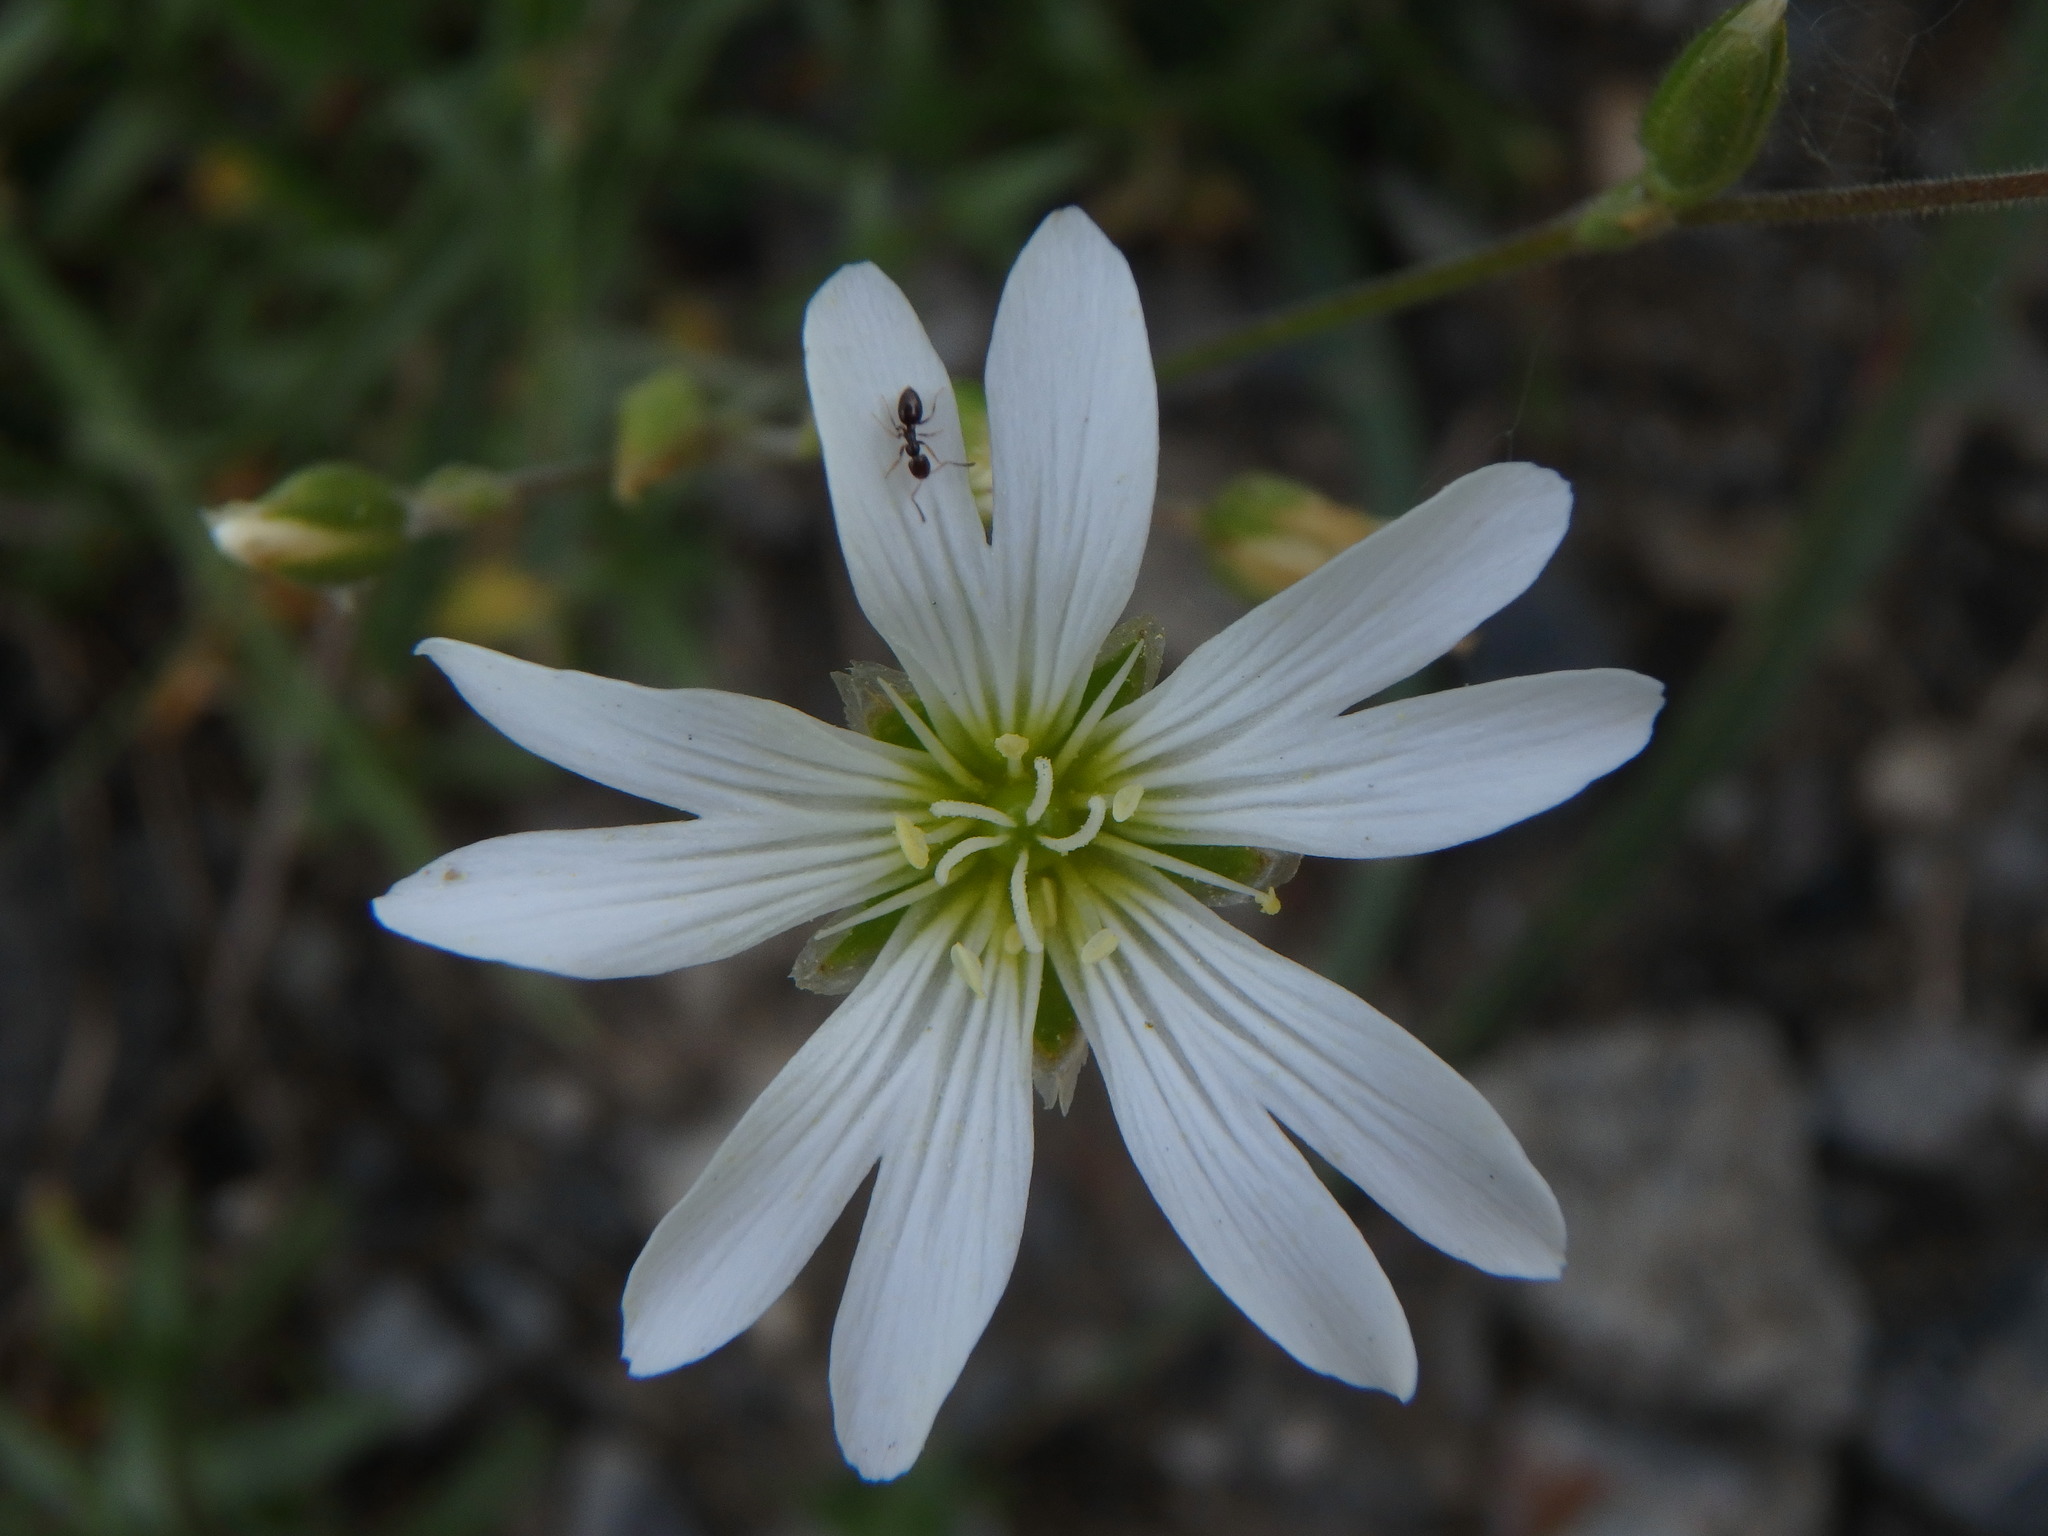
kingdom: Plantae
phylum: Tracheophyta
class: Magnoliopsida
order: Caryophyllales
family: Caryophyllaceae
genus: Cerastium
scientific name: Cerastium arvense
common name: Field mouse-ear
